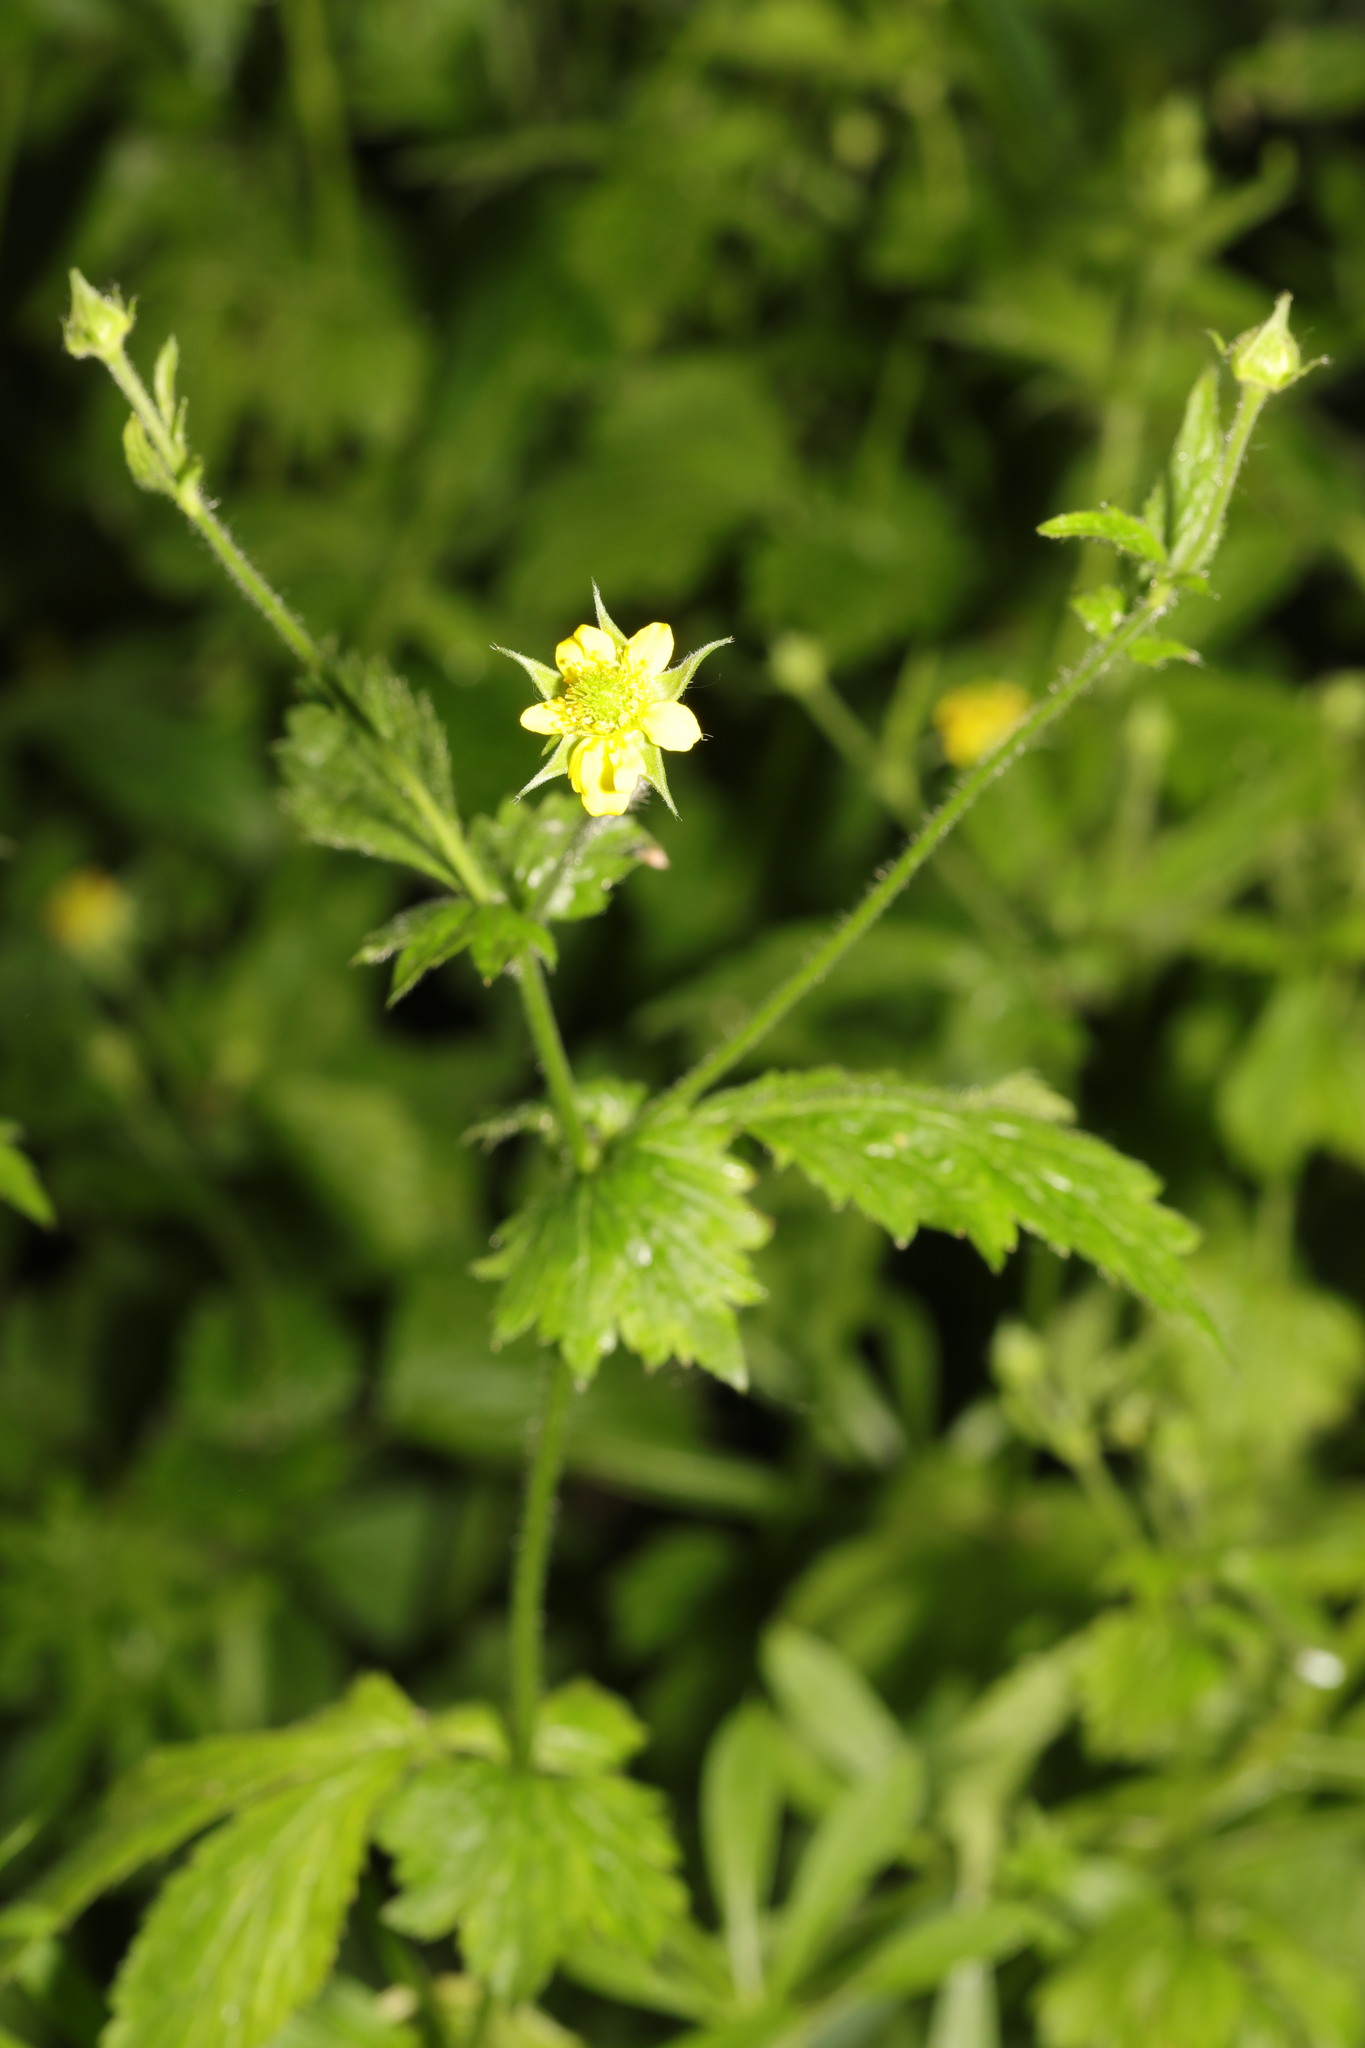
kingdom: Plantae
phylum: Tracheophyta
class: Magnoliopsida
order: Rosales
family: Rosaceae
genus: Geum
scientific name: Geum urbanum
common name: Wood avens
